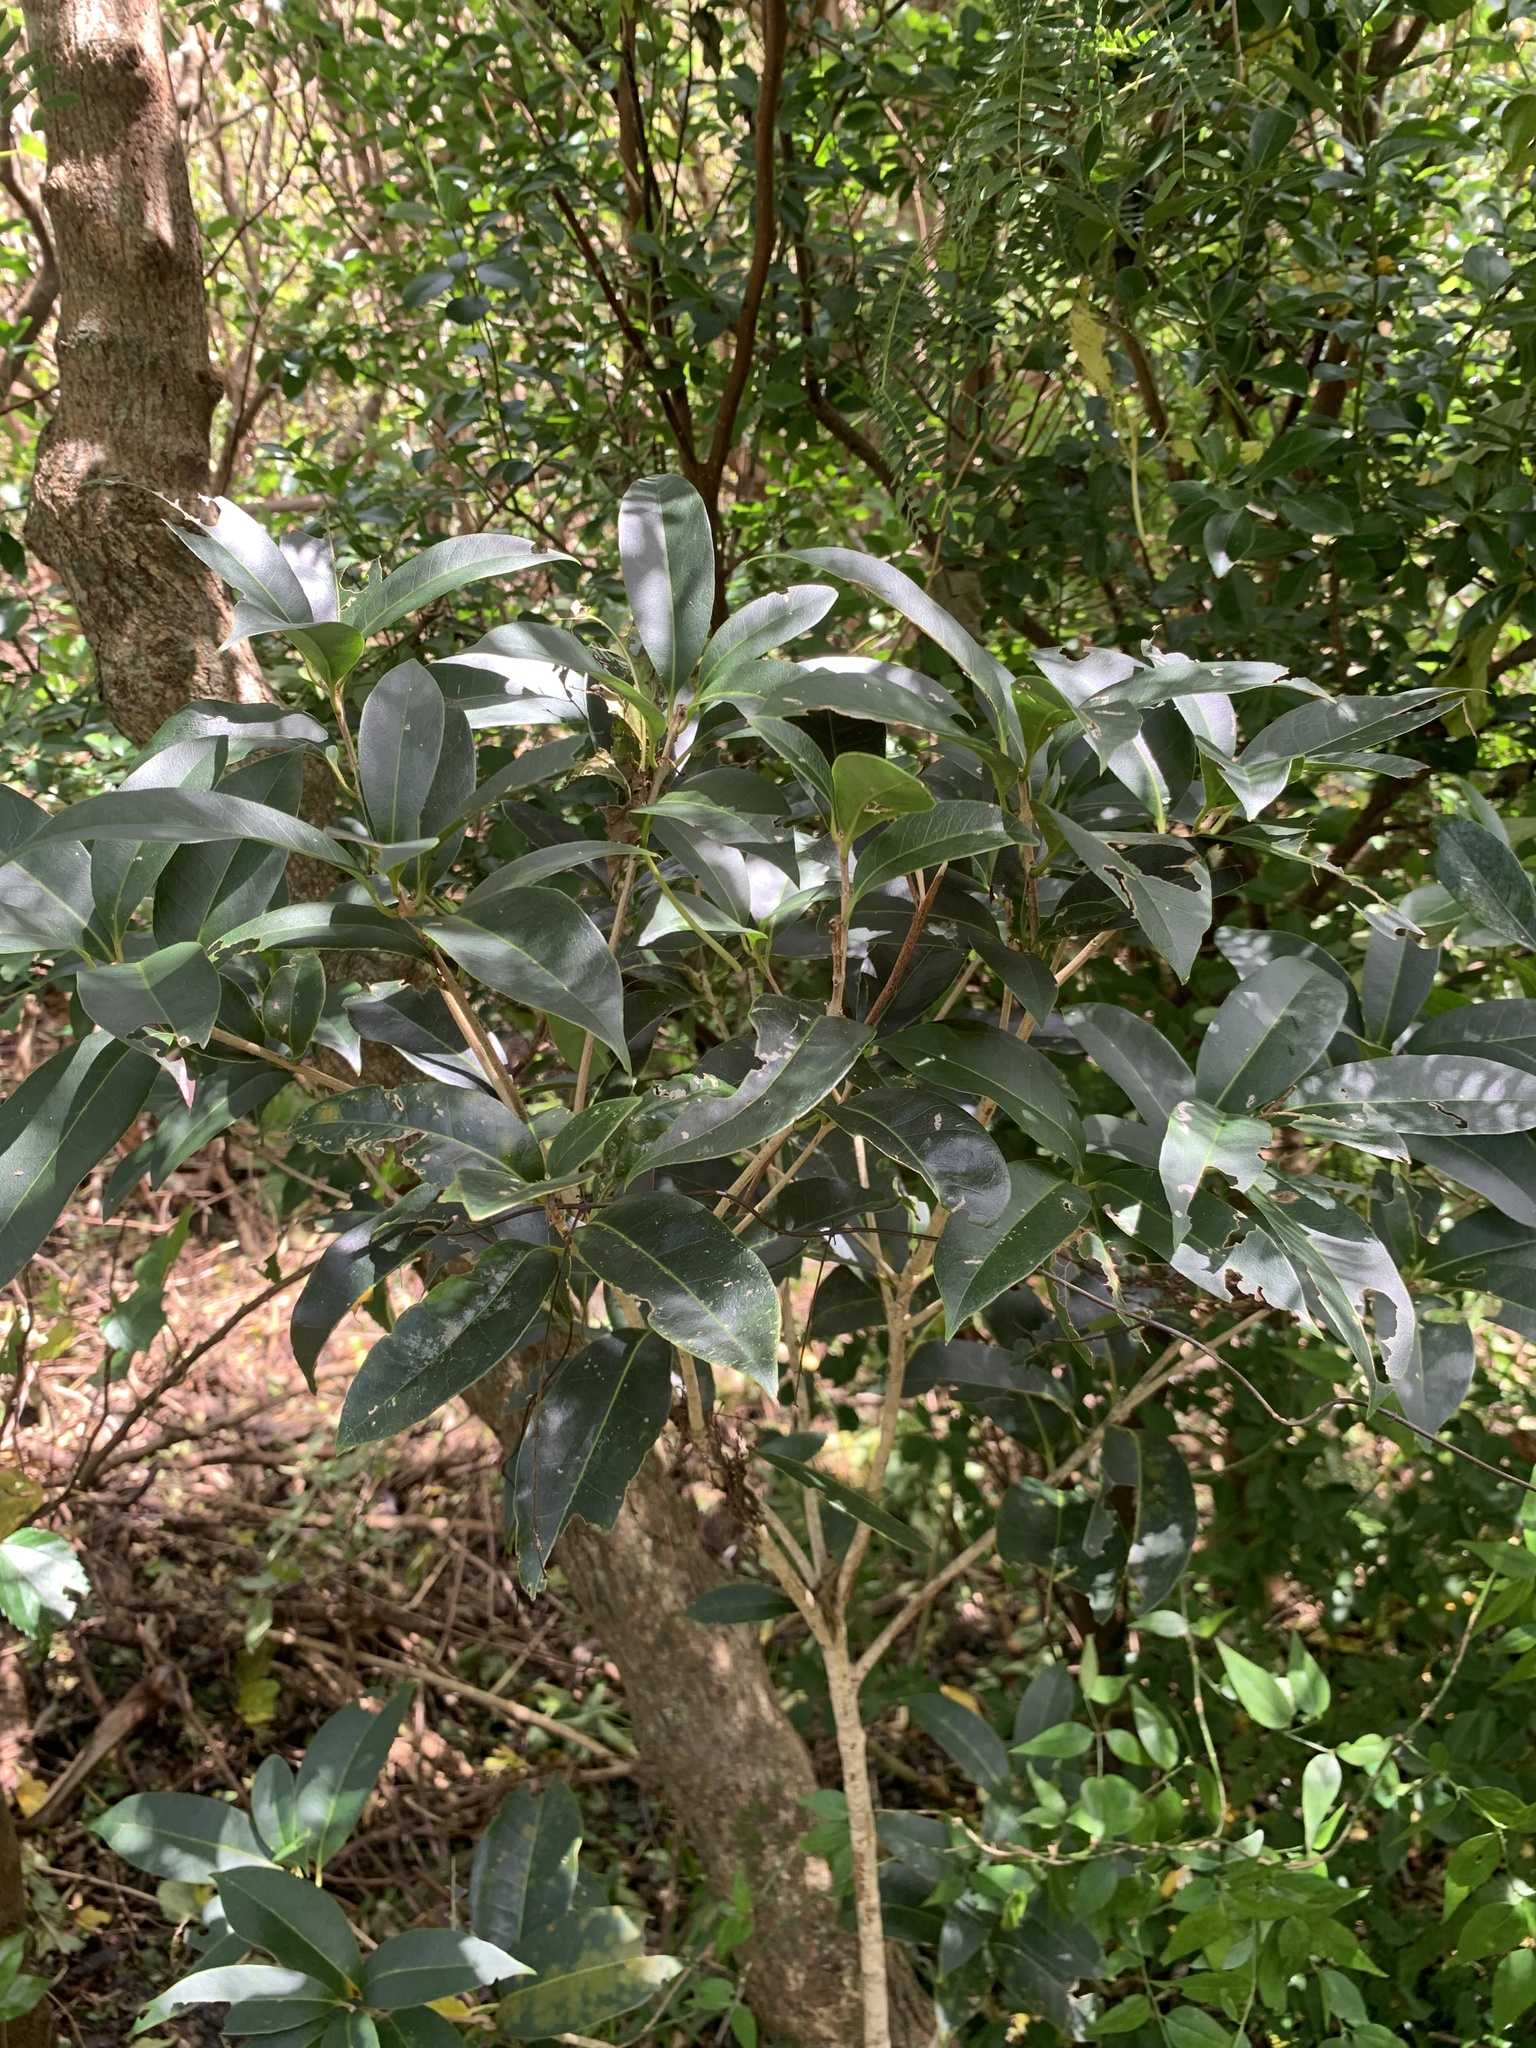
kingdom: Plantae
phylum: Tracheophyta
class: Magnoliopsida
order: Lamiales
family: Oleaceae
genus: Osmanthus
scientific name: Osmanthus insularis
